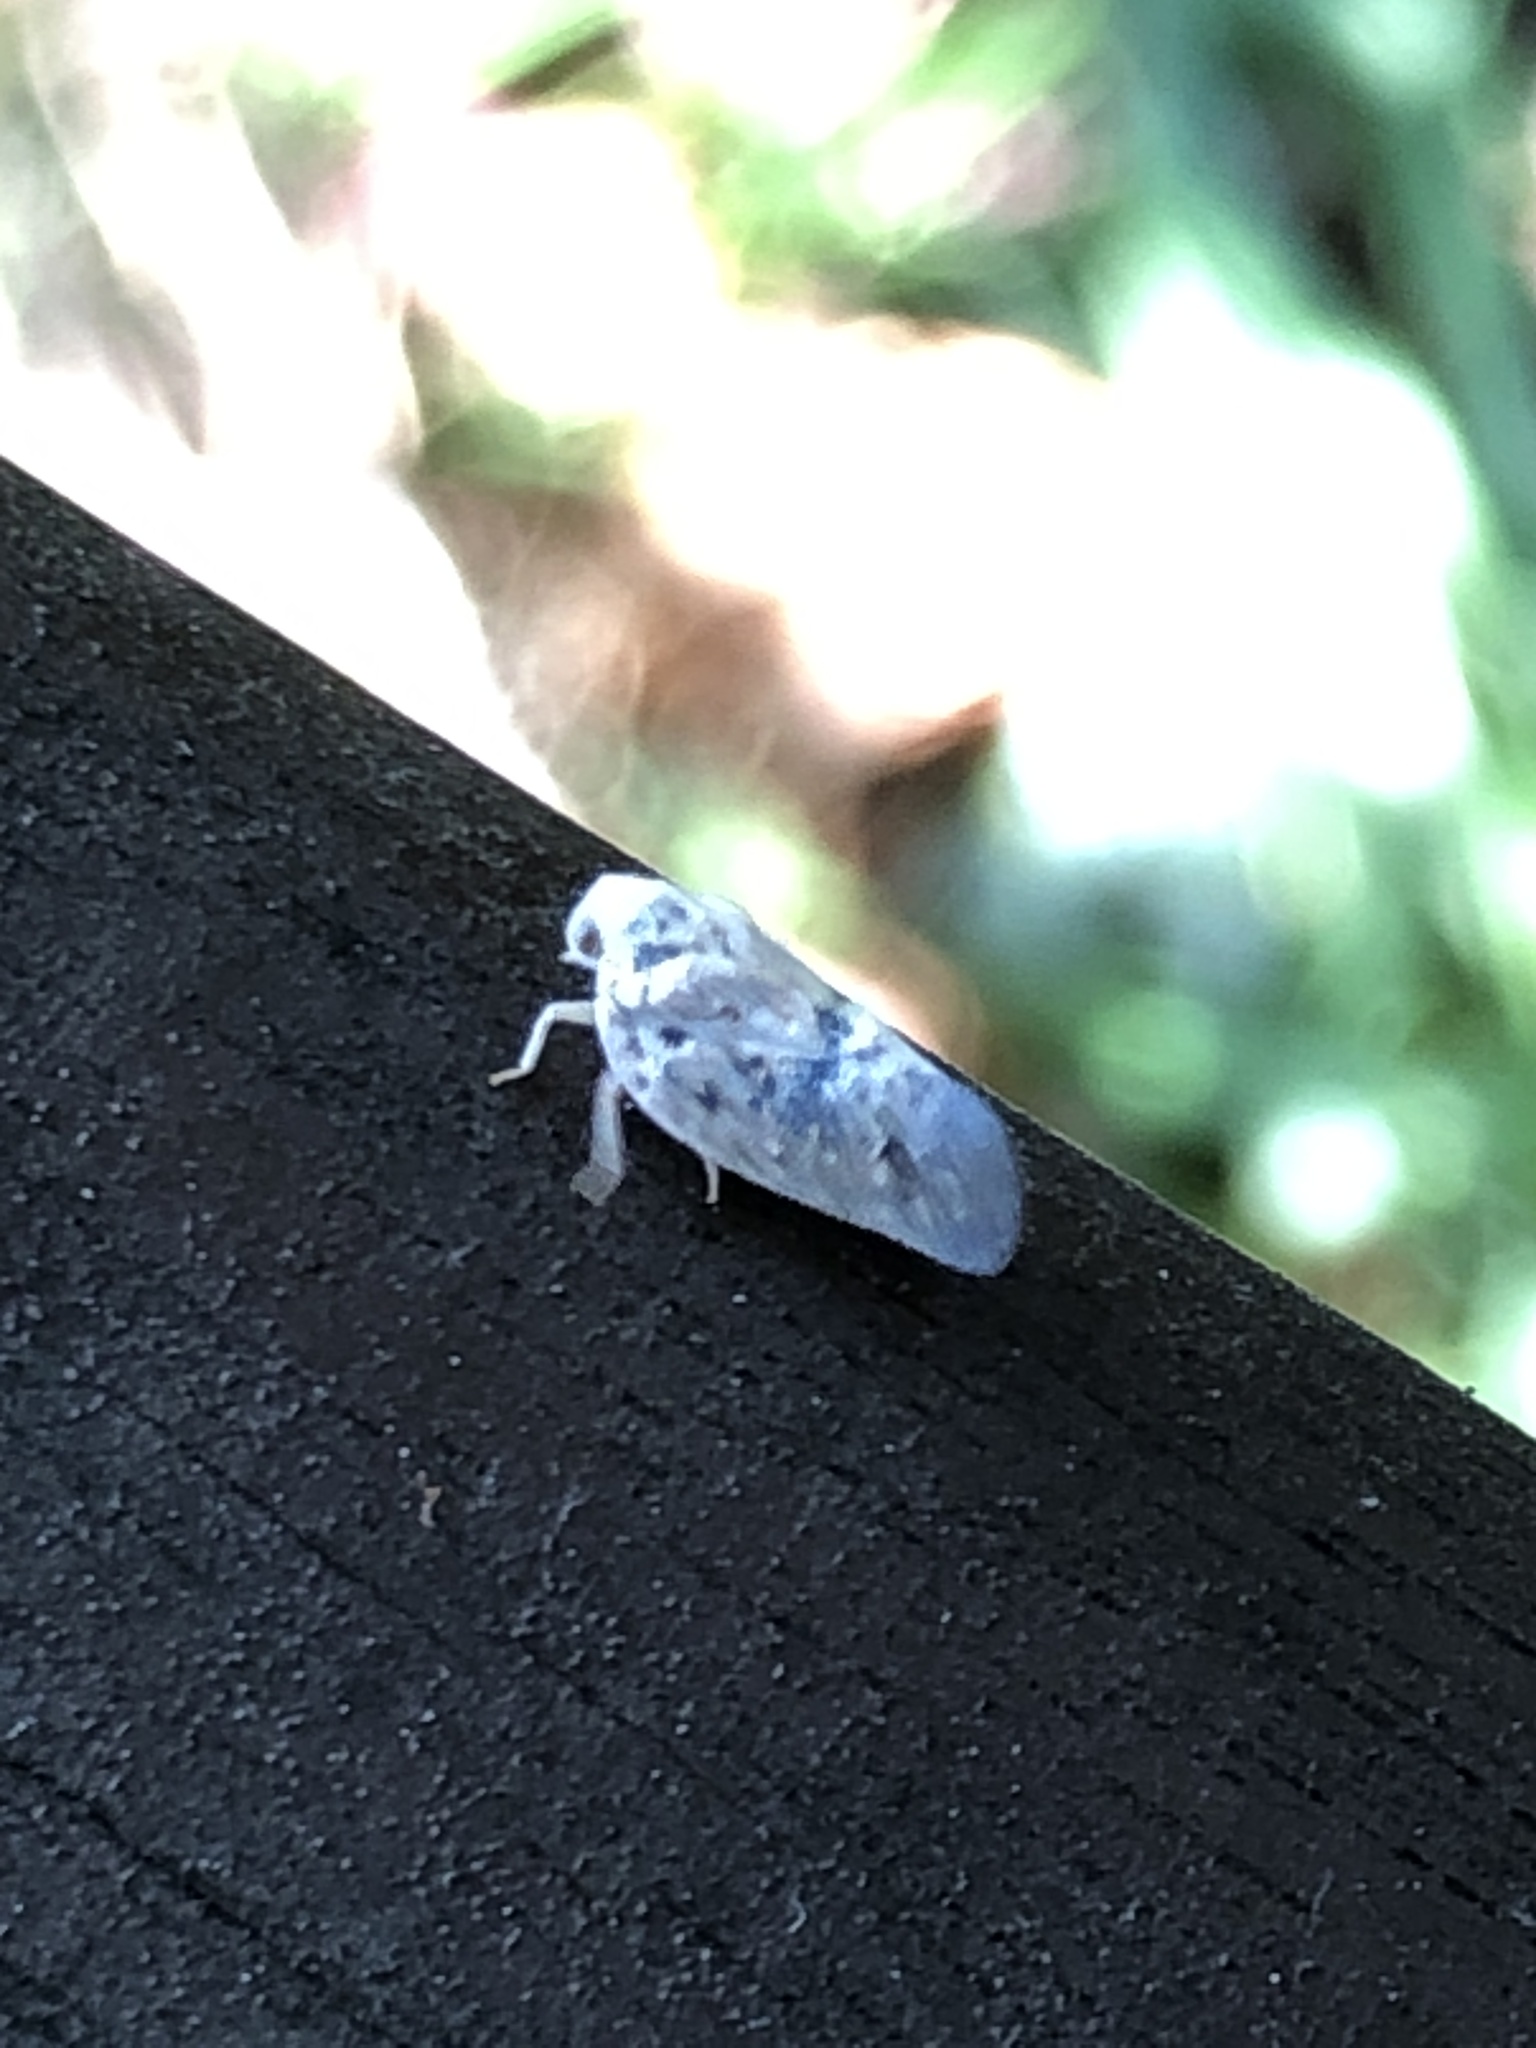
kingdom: Animalia
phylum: Arthropoda
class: Insecta
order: Hemiptera
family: Flatidae
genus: Metcalfa
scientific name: Metcalfa pruinosa
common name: Citrus flatid planthopper
